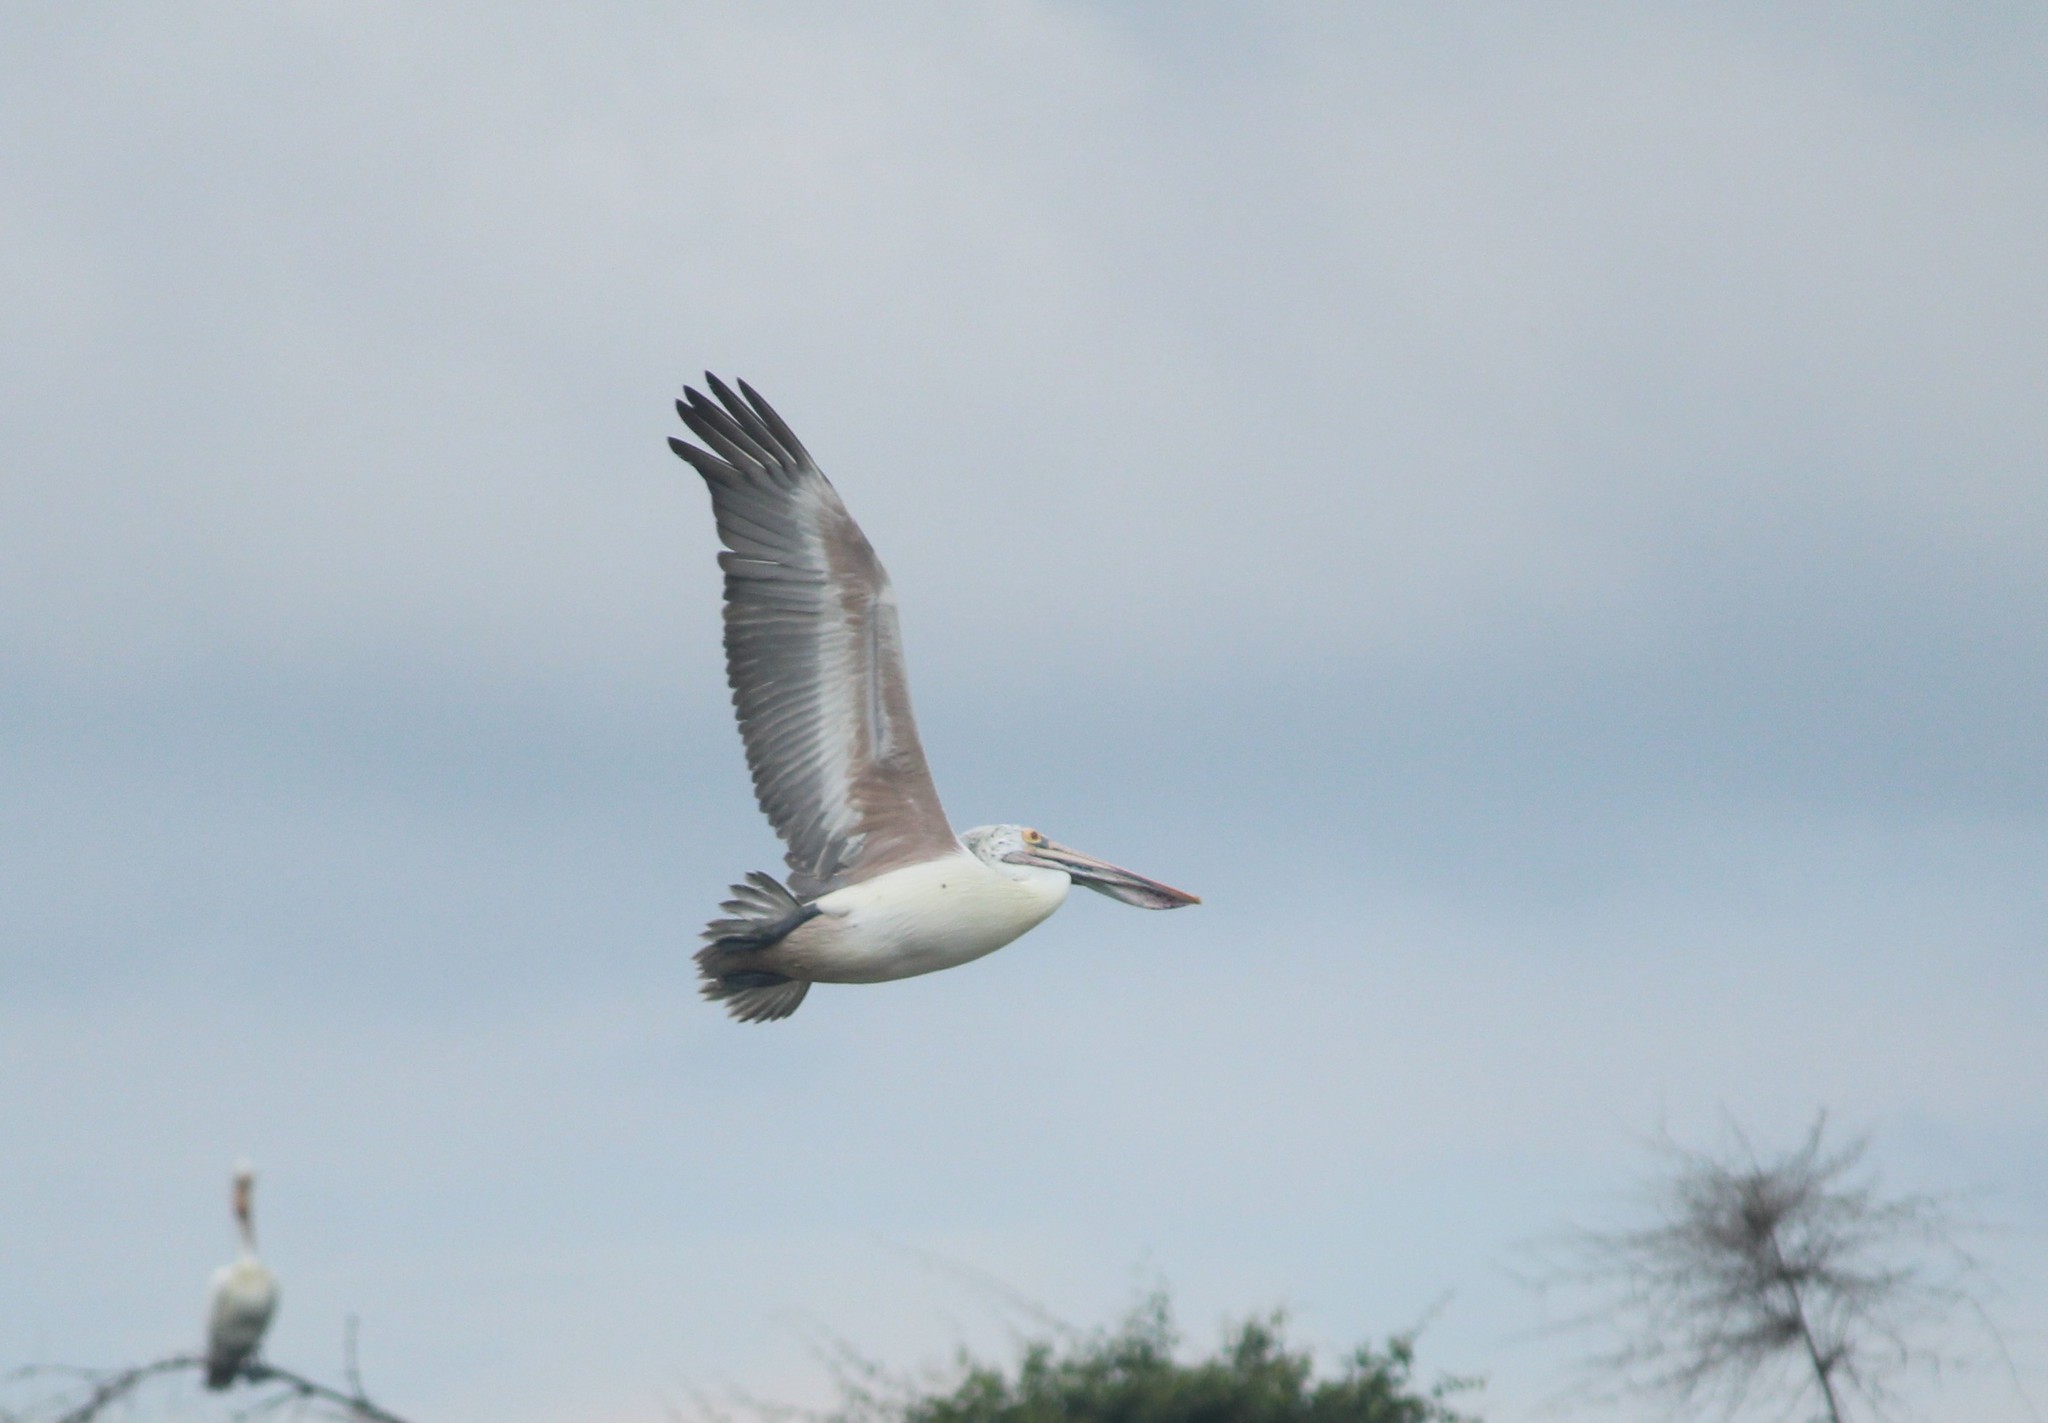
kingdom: Animalia
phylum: Chordata
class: Aves
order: Pelecaniformes
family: Pelecanidae
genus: Pelecanus
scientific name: Pelecanus philippensis
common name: Spot-billed pelican
